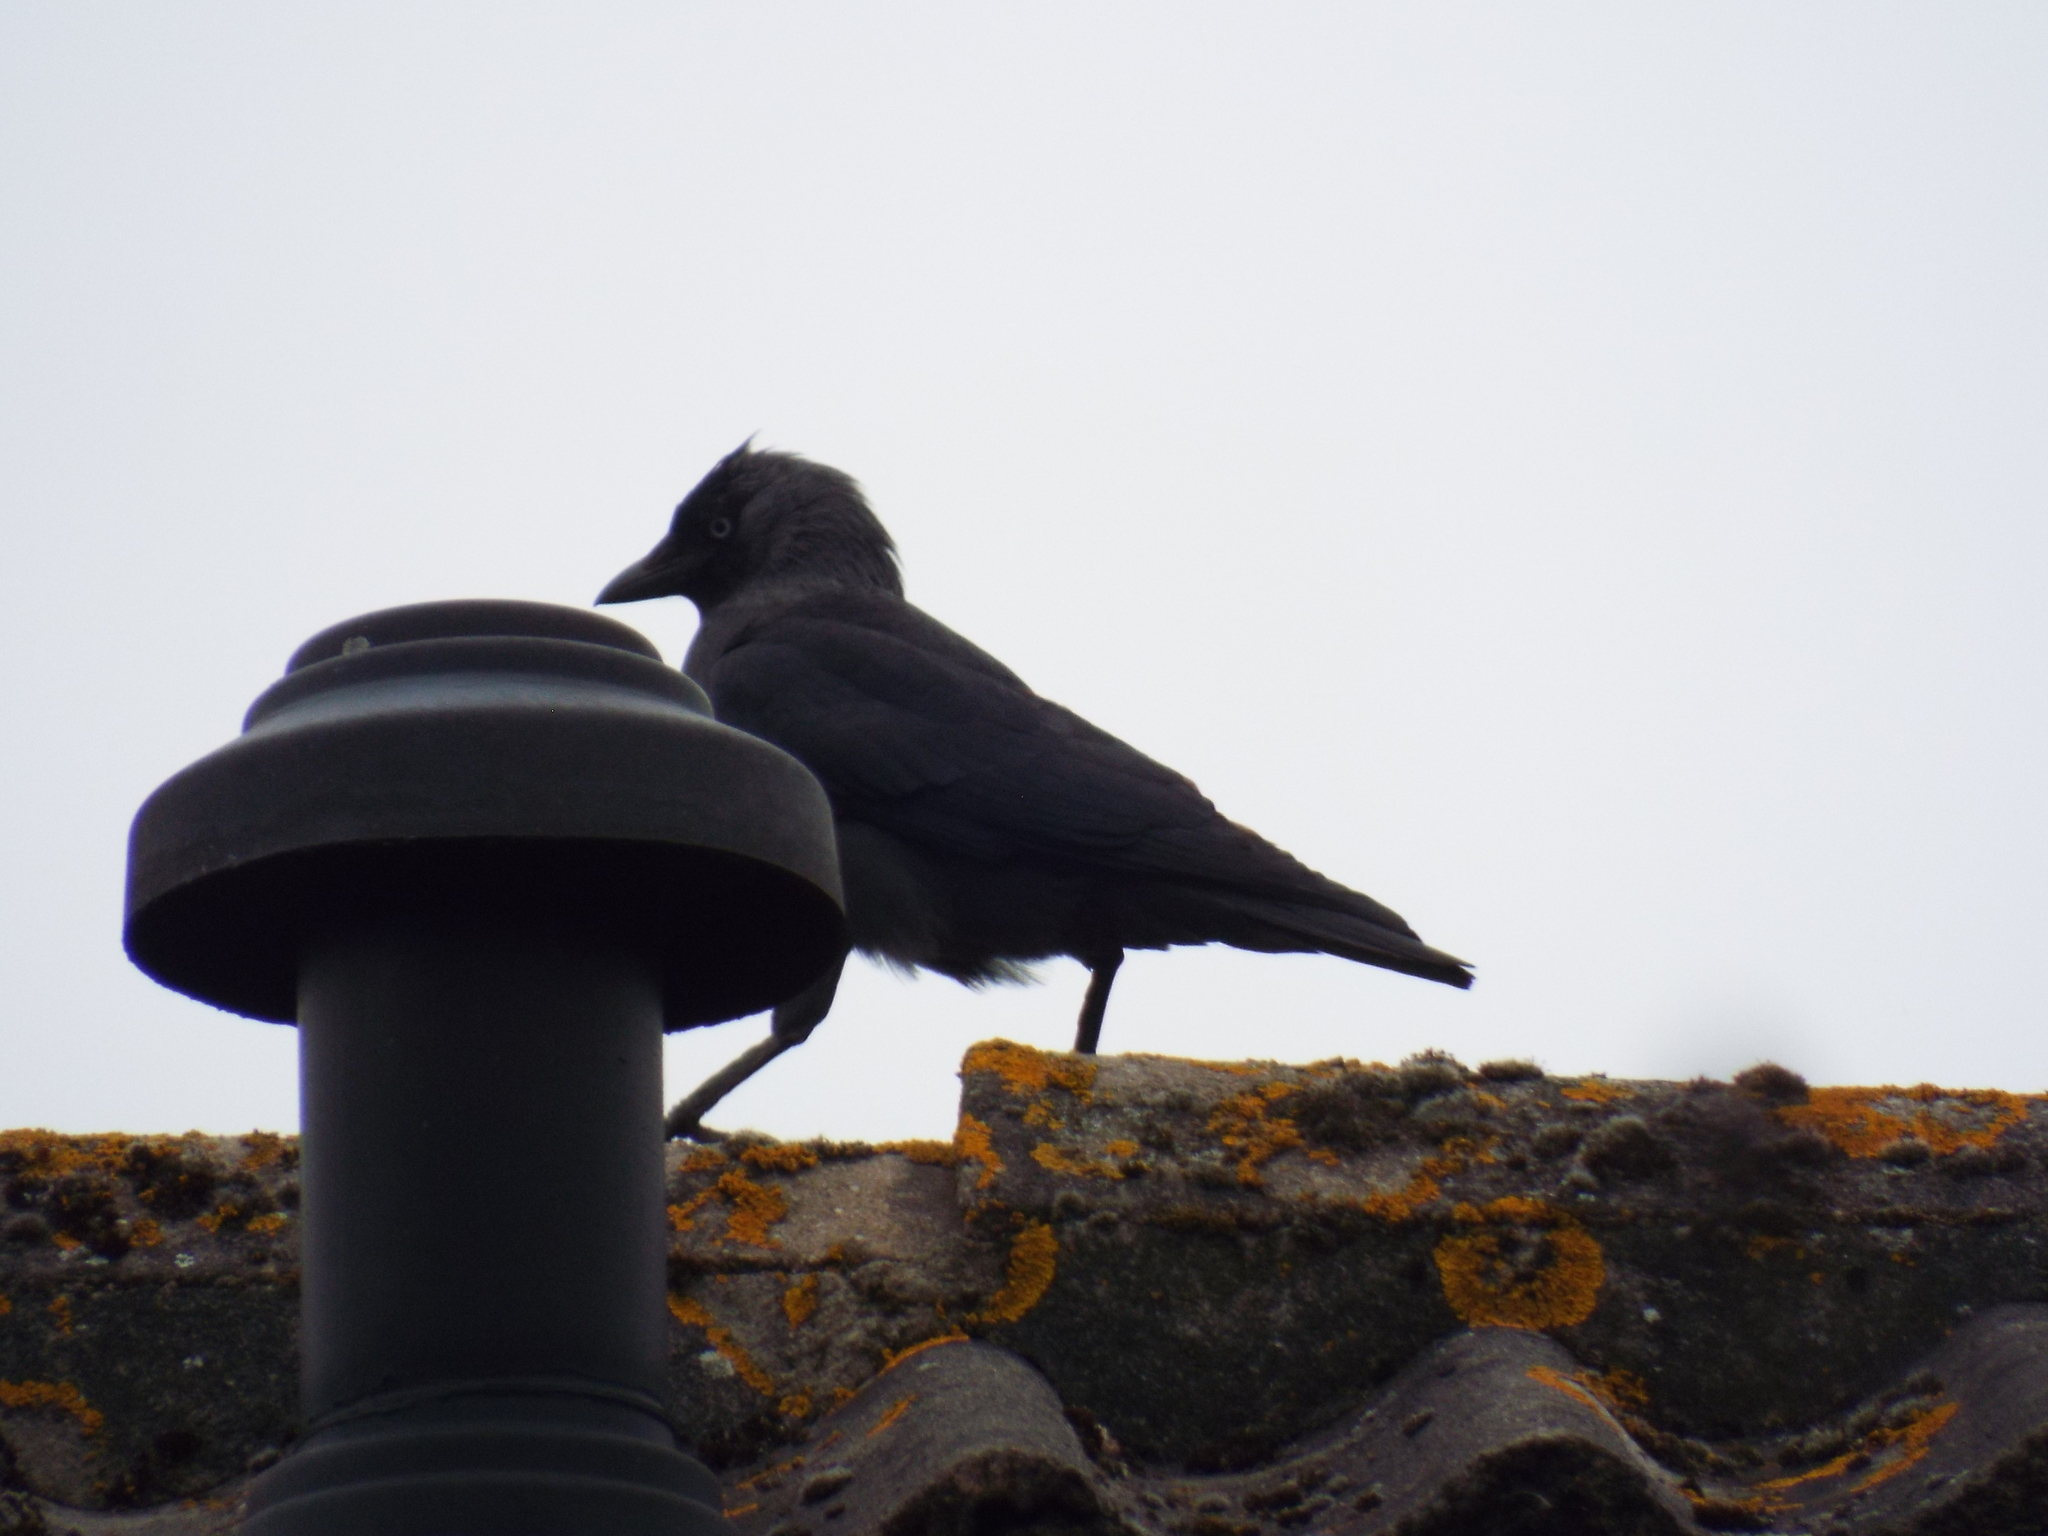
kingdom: Animalia
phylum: Chordata
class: Aves
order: Passeriformes
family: Corvidae
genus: Coloeus
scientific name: Coloeus monedula
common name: Western jackdaw
